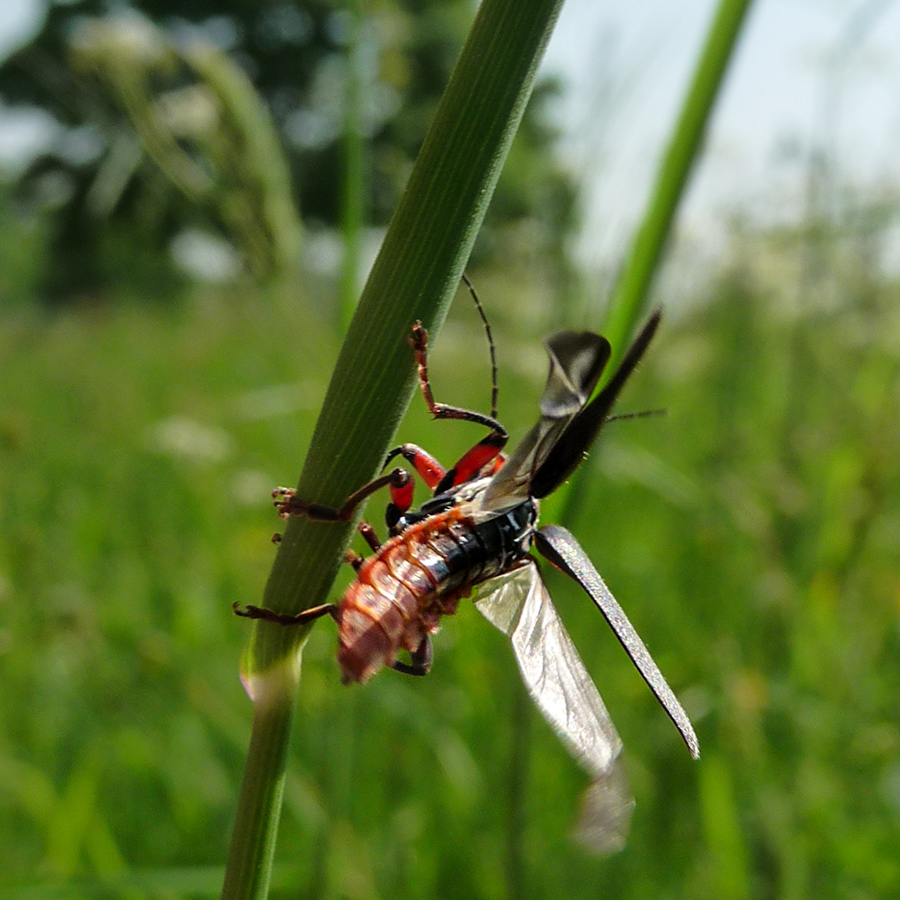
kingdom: Animalia
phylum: Arthropoda
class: Insecta
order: Coleoptera
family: Cantharidae
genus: Cantharis
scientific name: Cantharis rustica
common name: Soldier beetle
